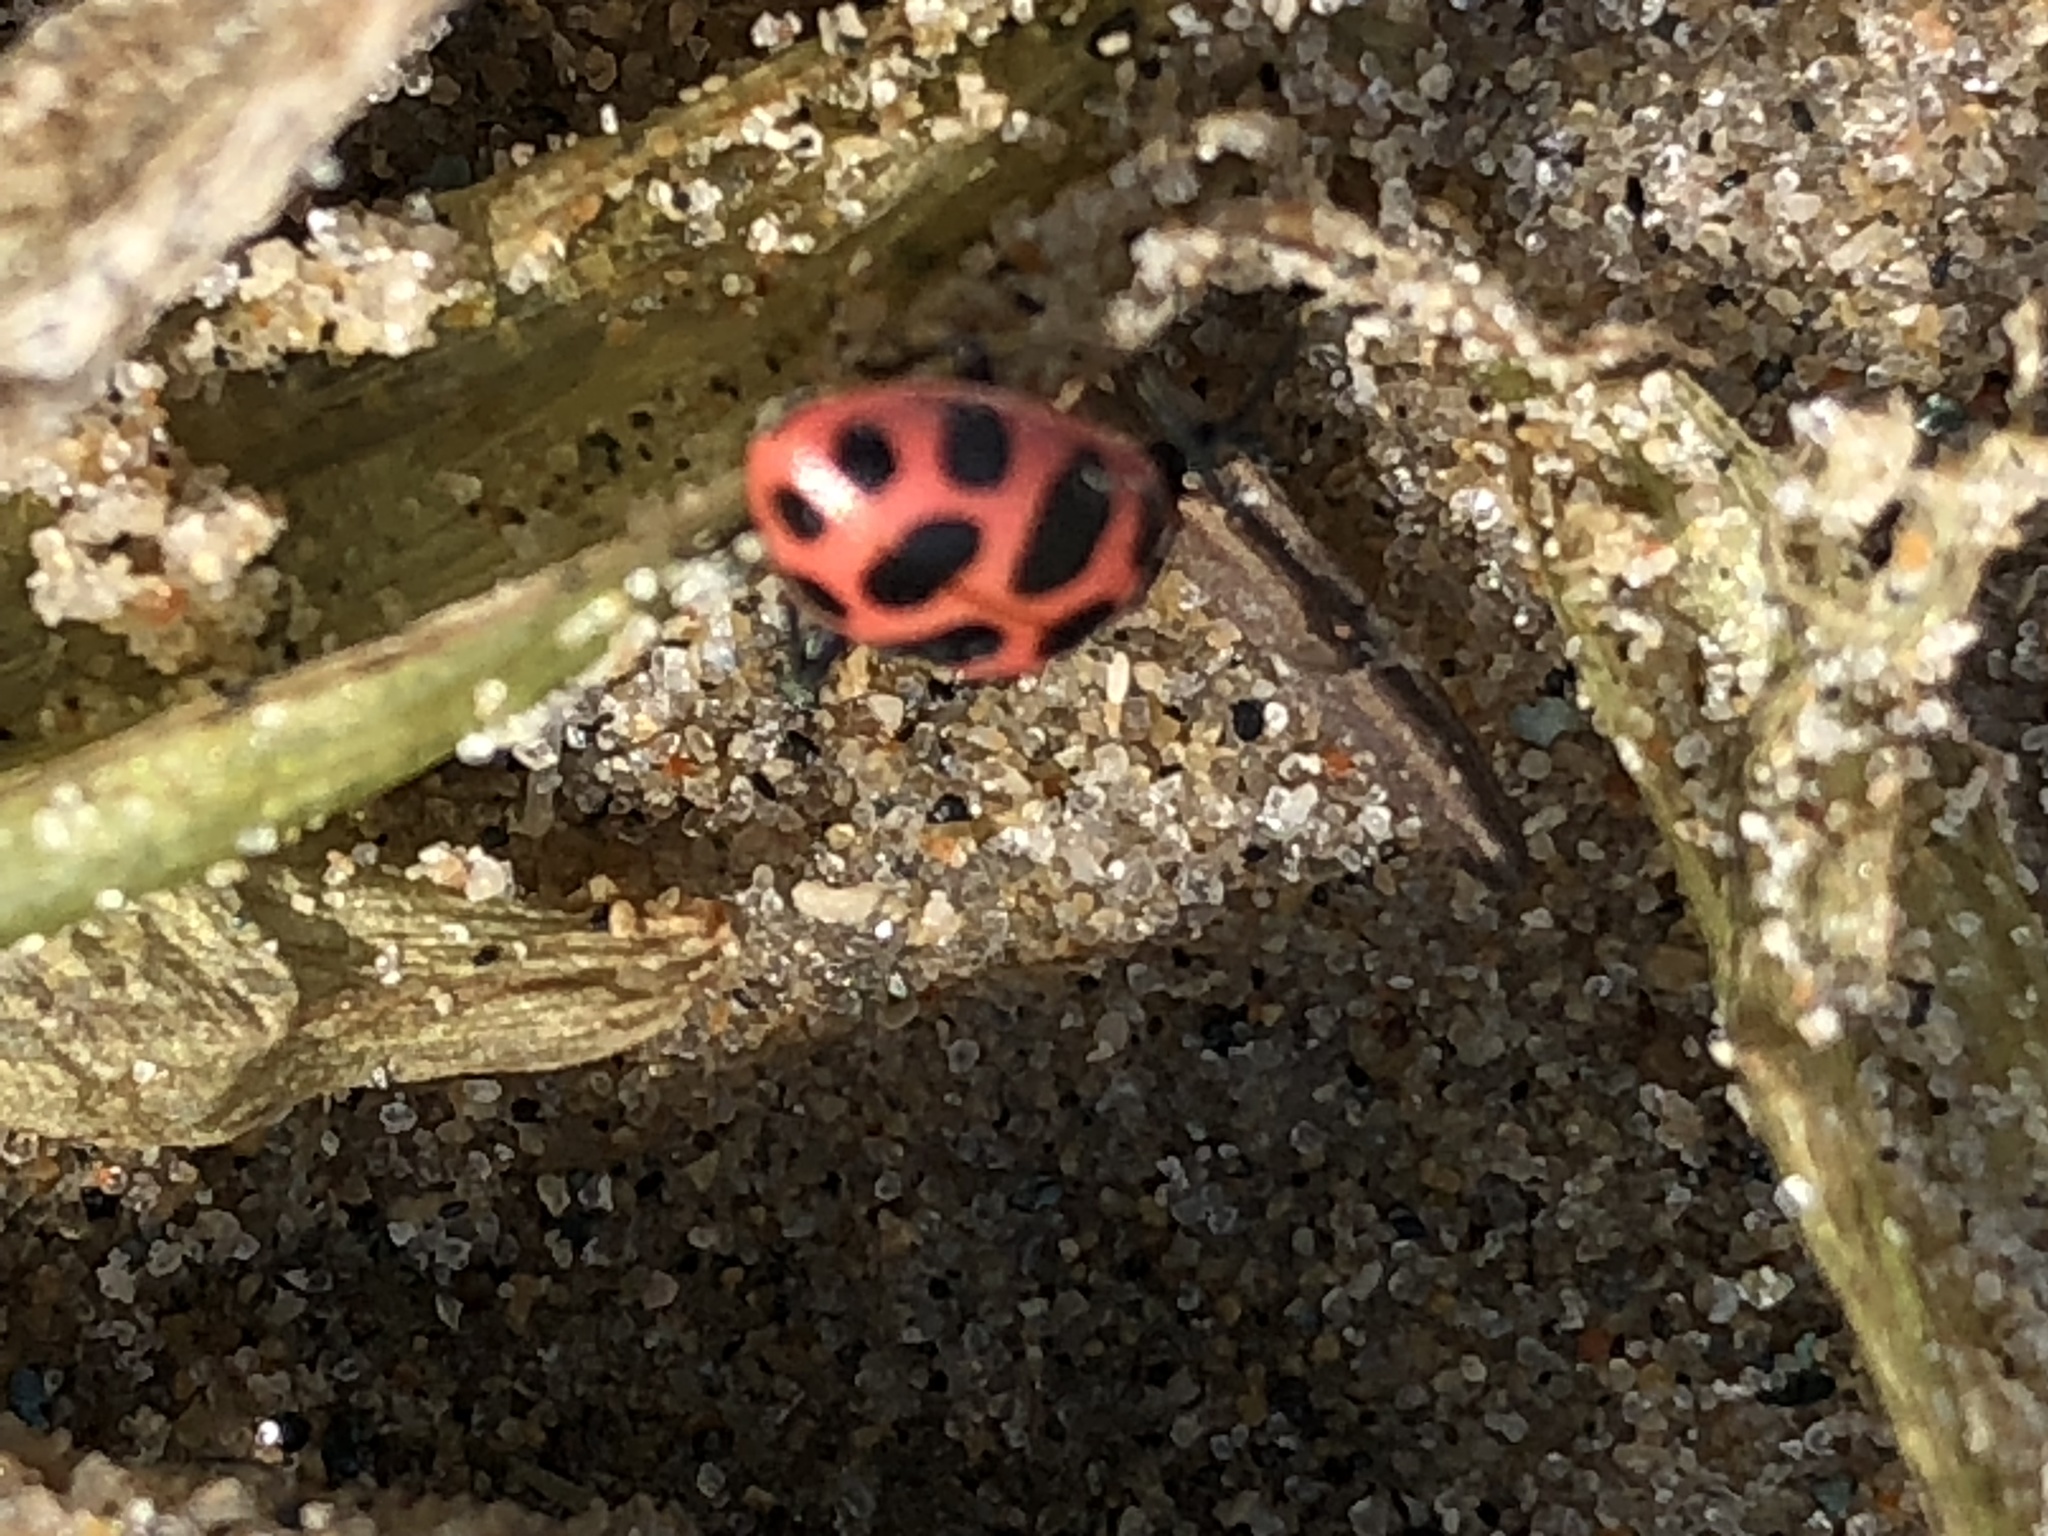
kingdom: Animalia
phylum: Arthropoda
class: Insecta
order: Coleoptera
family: Coccinellidae
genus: Coleomegilla
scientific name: Coleomegilla maculata
